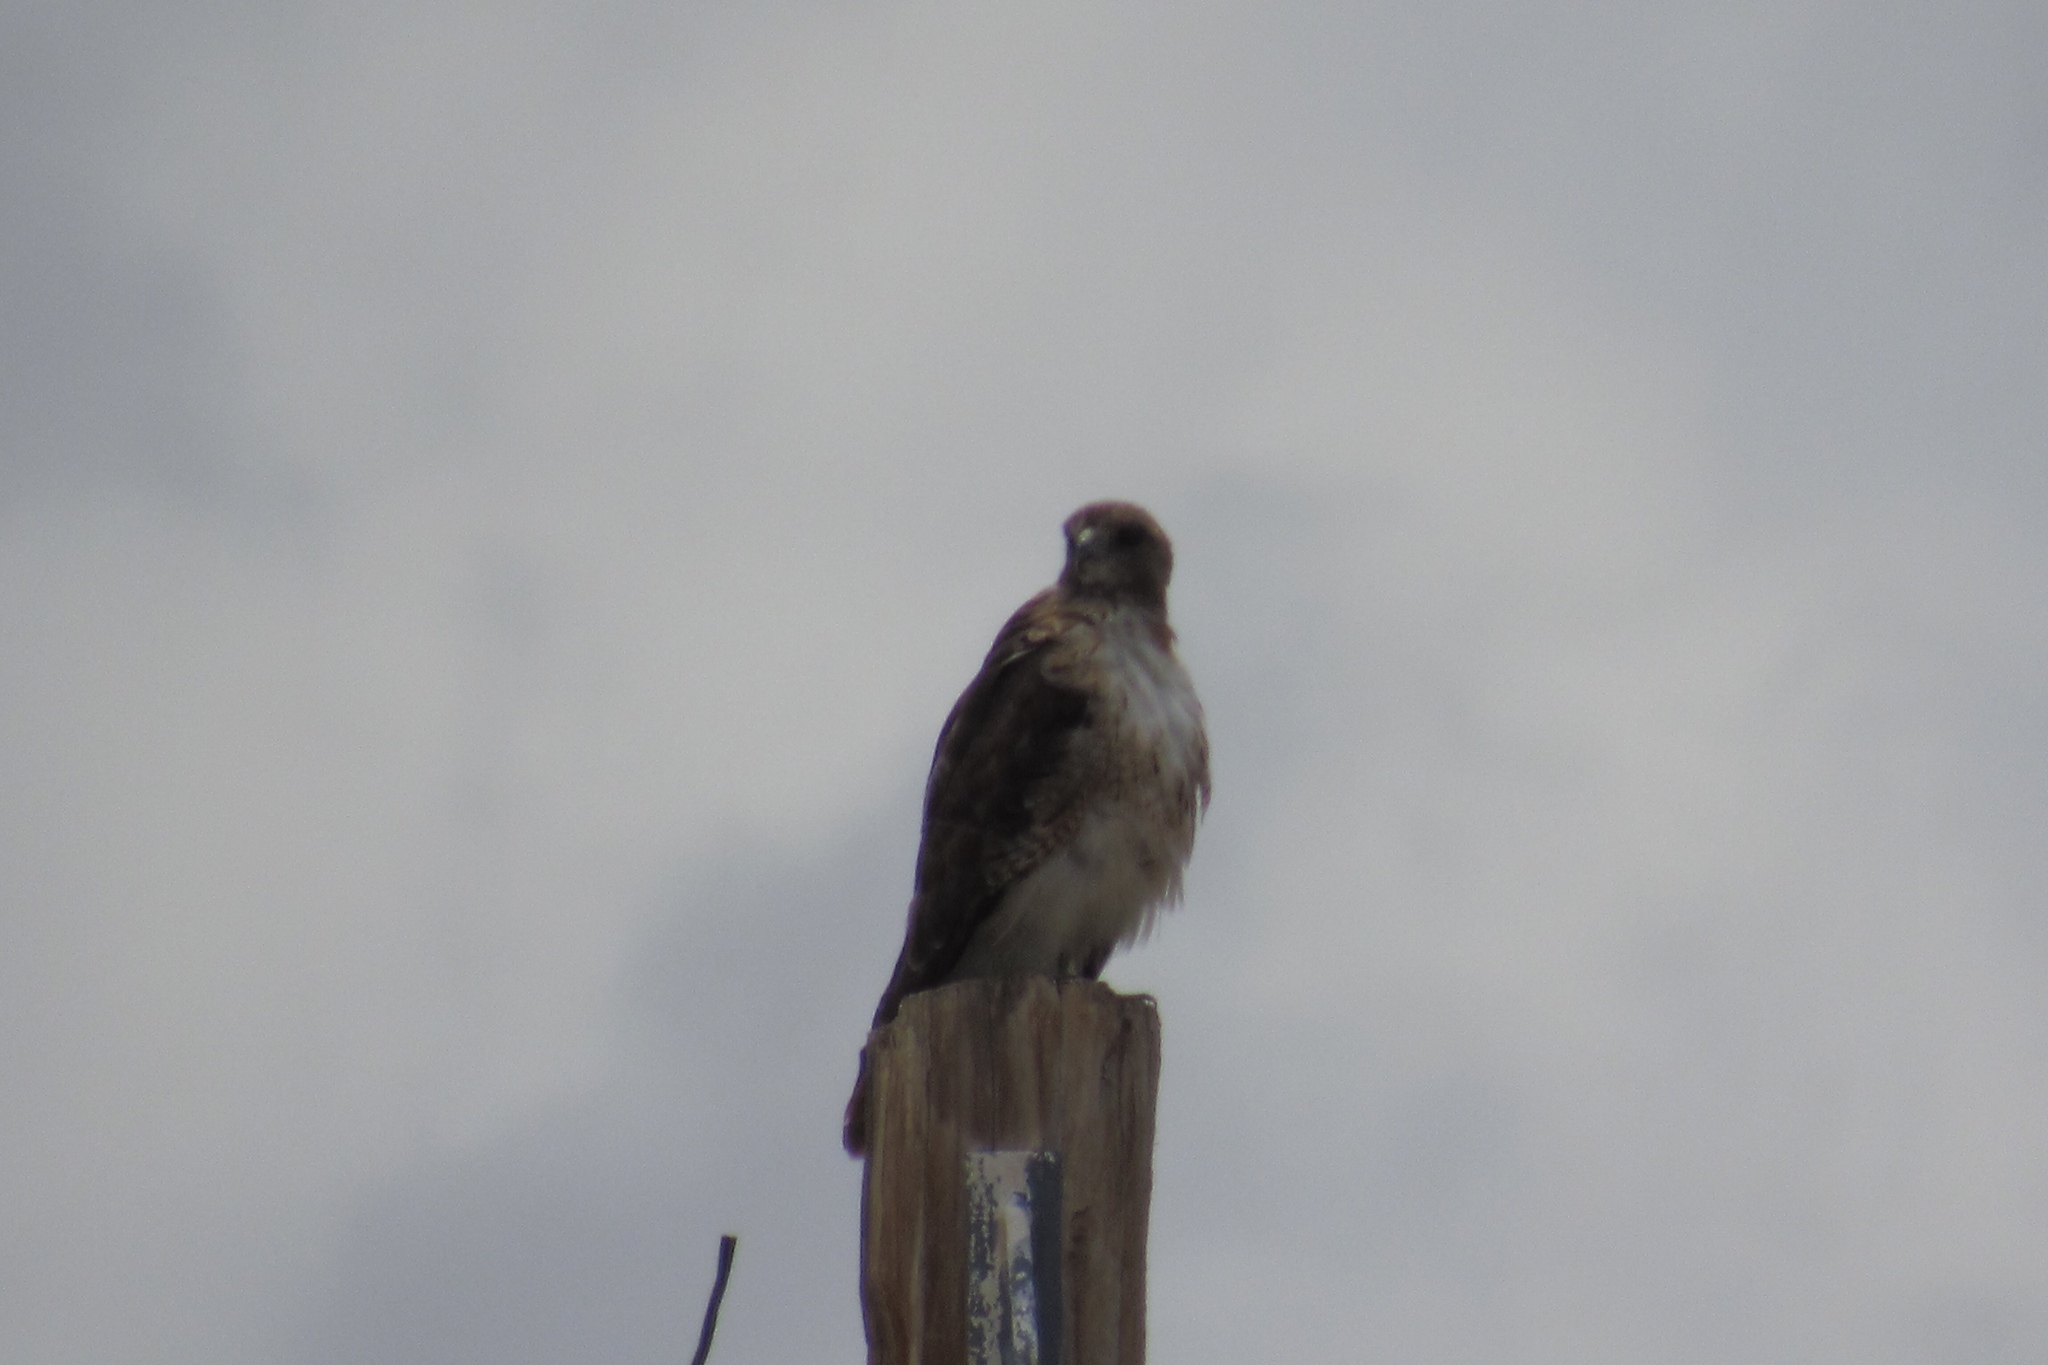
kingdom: Animalia
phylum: Chordata
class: Aves
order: Accipitriformes
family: Accipitridae
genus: Buteo
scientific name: Buteo jamaicensis
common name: Red-tailed hawk
